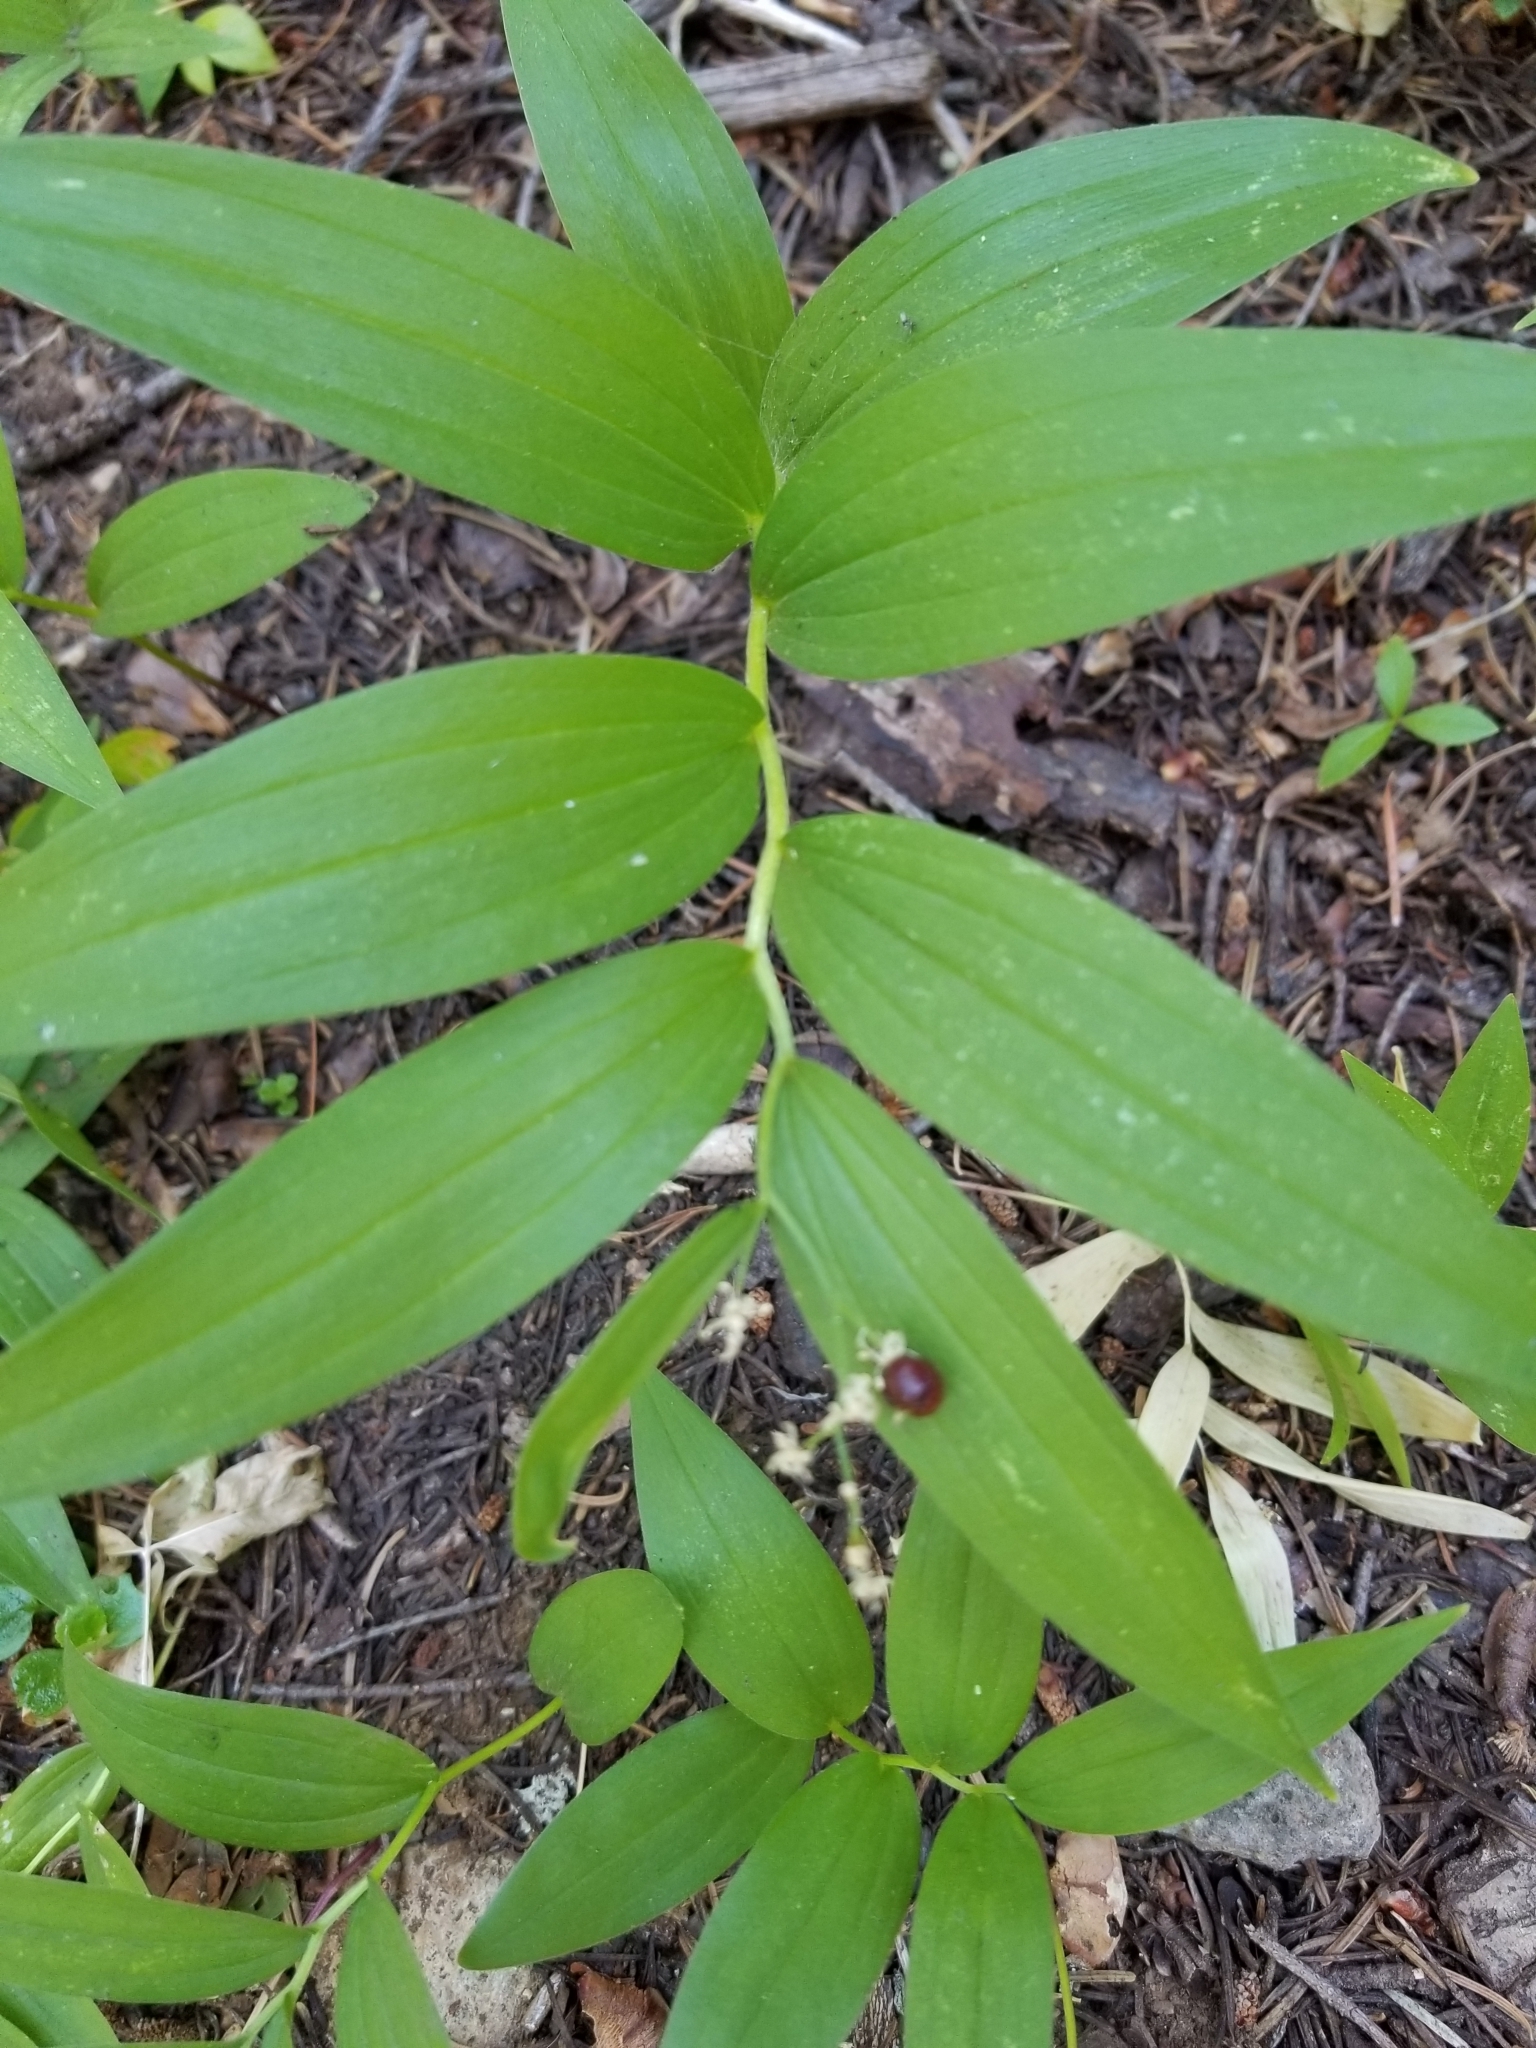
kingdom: Plantae
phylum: Tracheophyta
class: Liliopsida
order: Asparagales
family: Asparagaceae
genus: Maianthemum
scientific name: Maianthemum stellatum
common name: Little false solomon's seal
